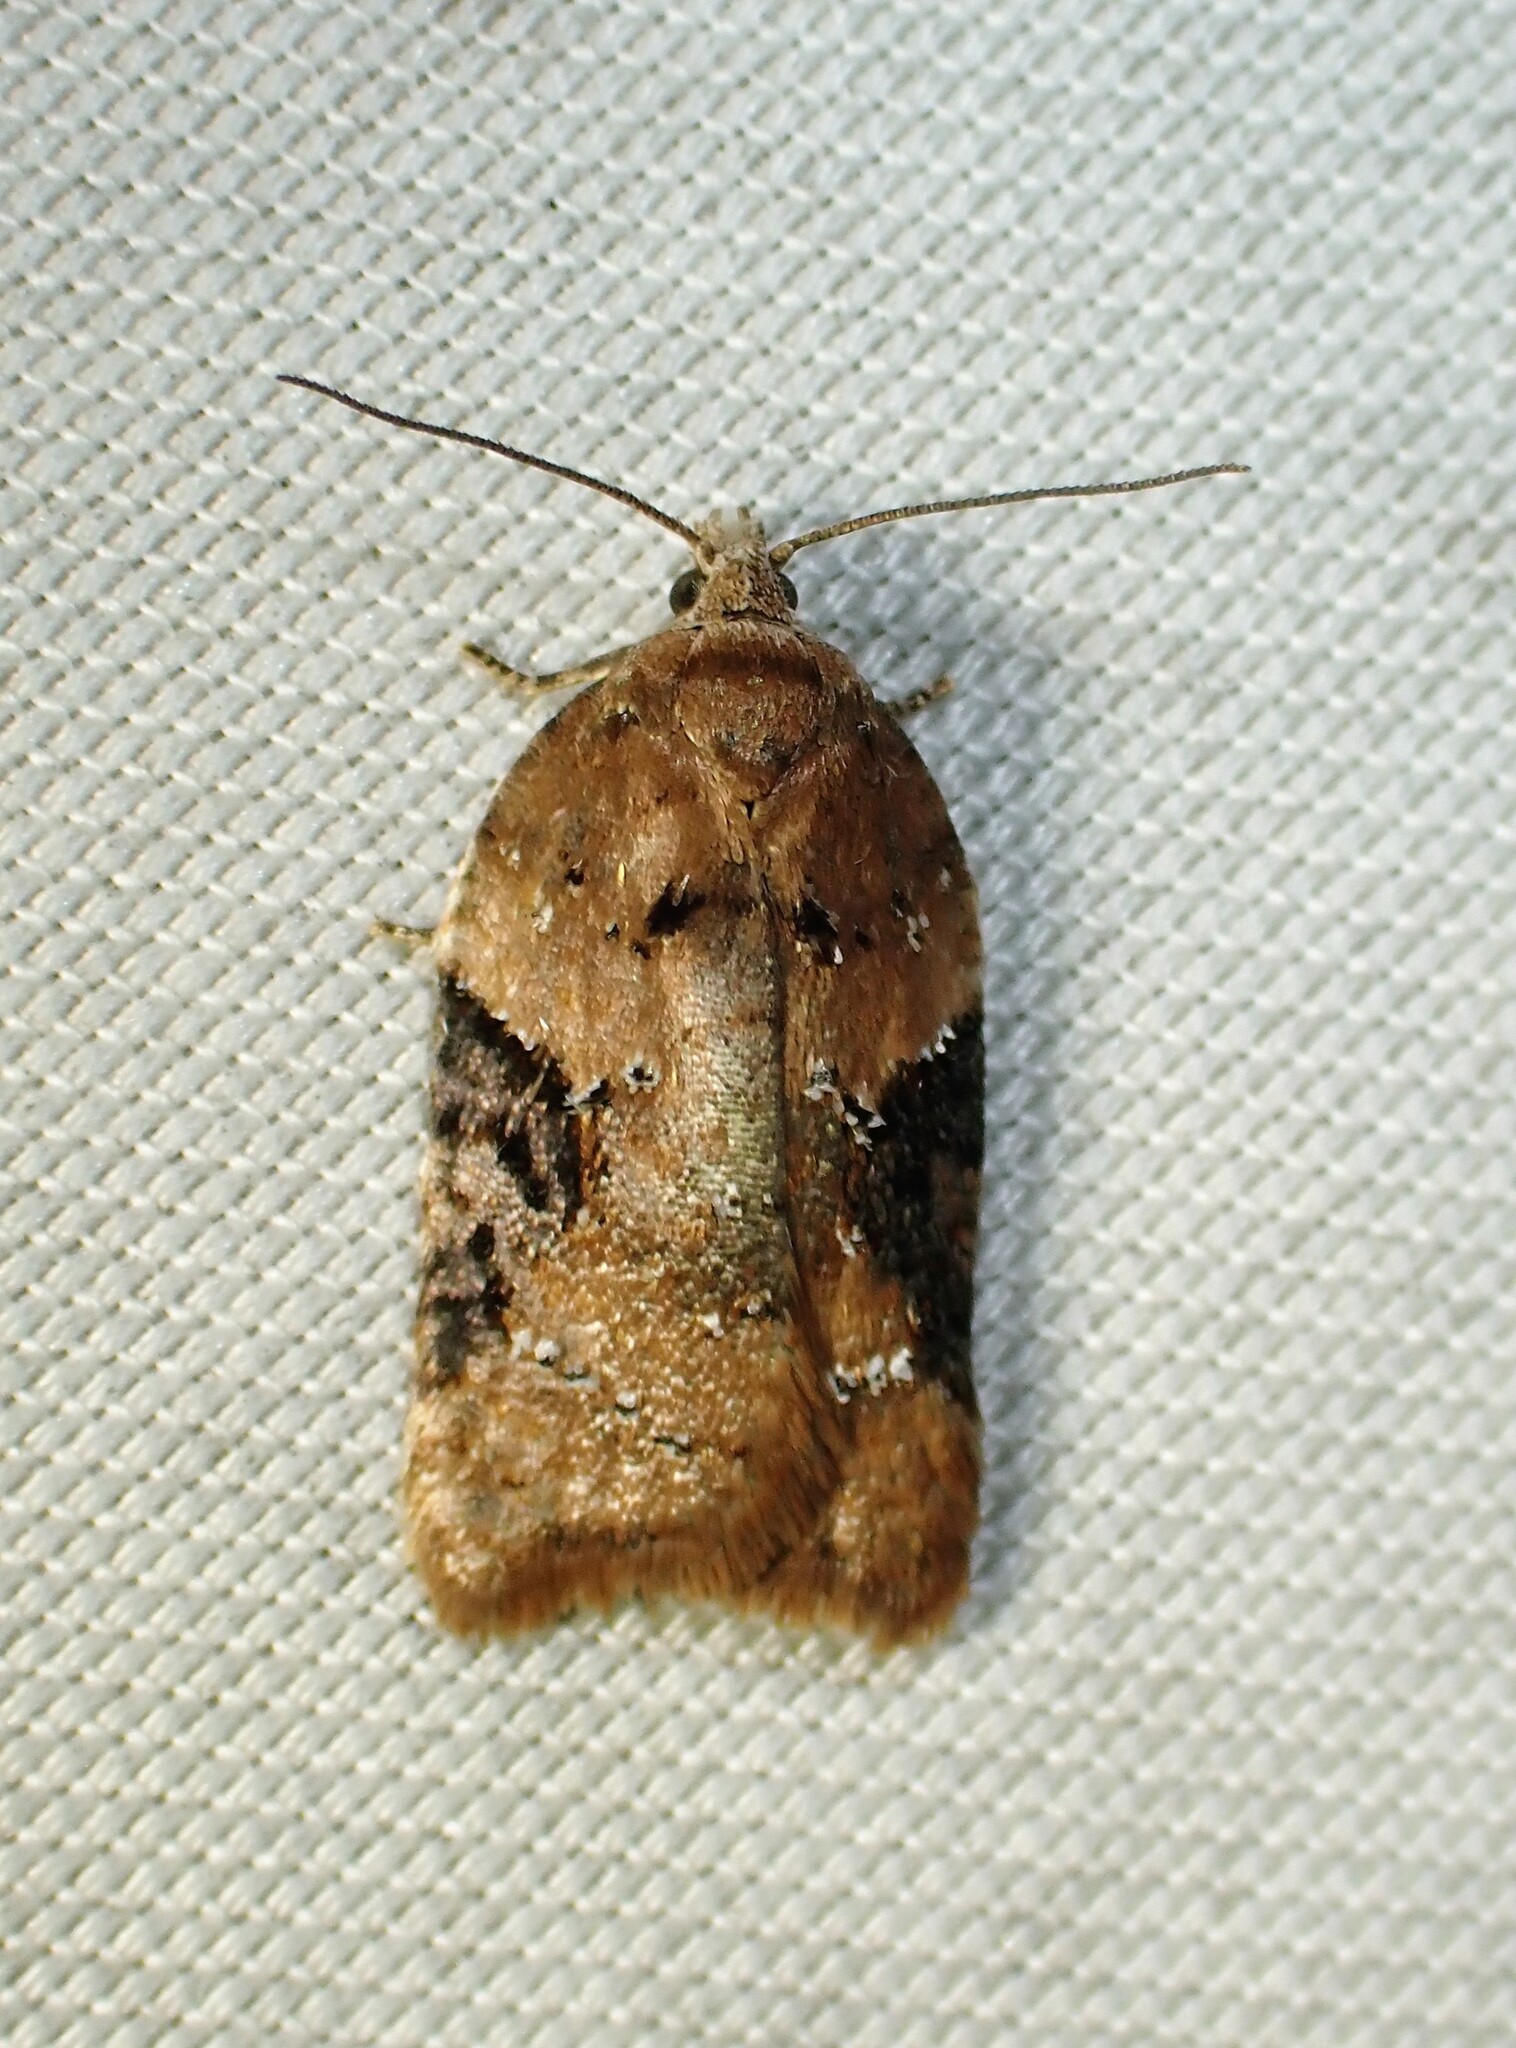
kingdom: Animalia
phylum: Arthropoda
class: Insecta
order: Lepidoptera
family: Tortricidae
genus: Acleris
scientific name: Acleris braunana
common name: Alder leafroller
